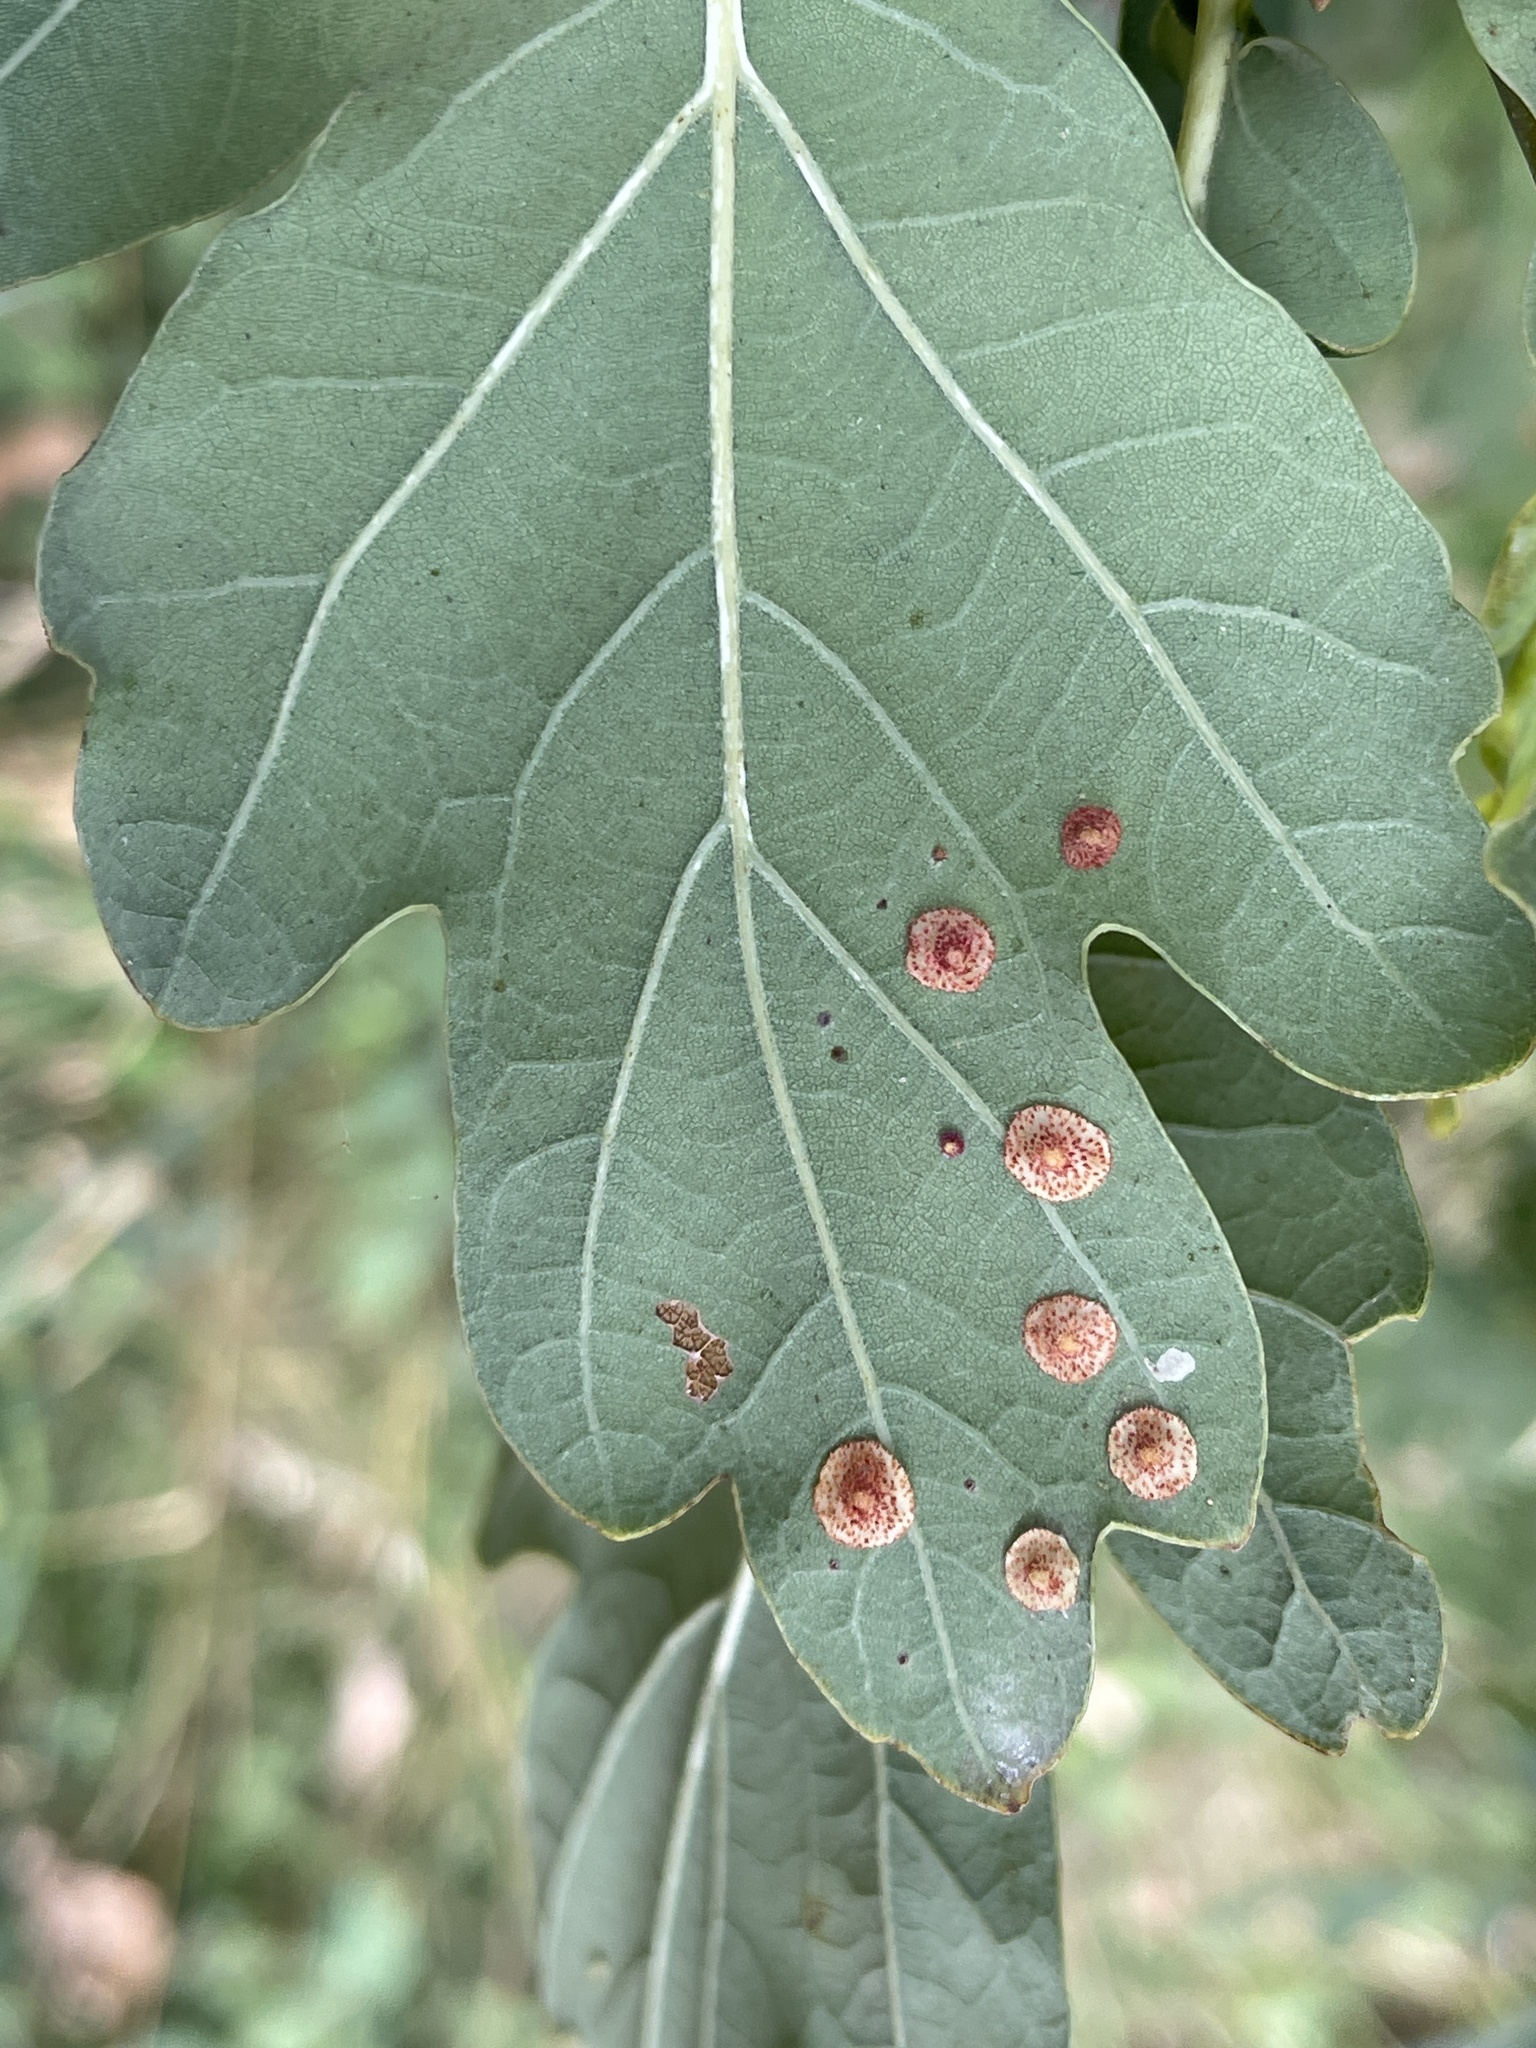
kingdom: Animalia
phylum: Arthropoda
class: Insecta
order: Hymenoptera
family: Cynipidae
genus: Neuroterus
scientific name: Neuroterus quercusbaccarum
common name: Common spangle gall
